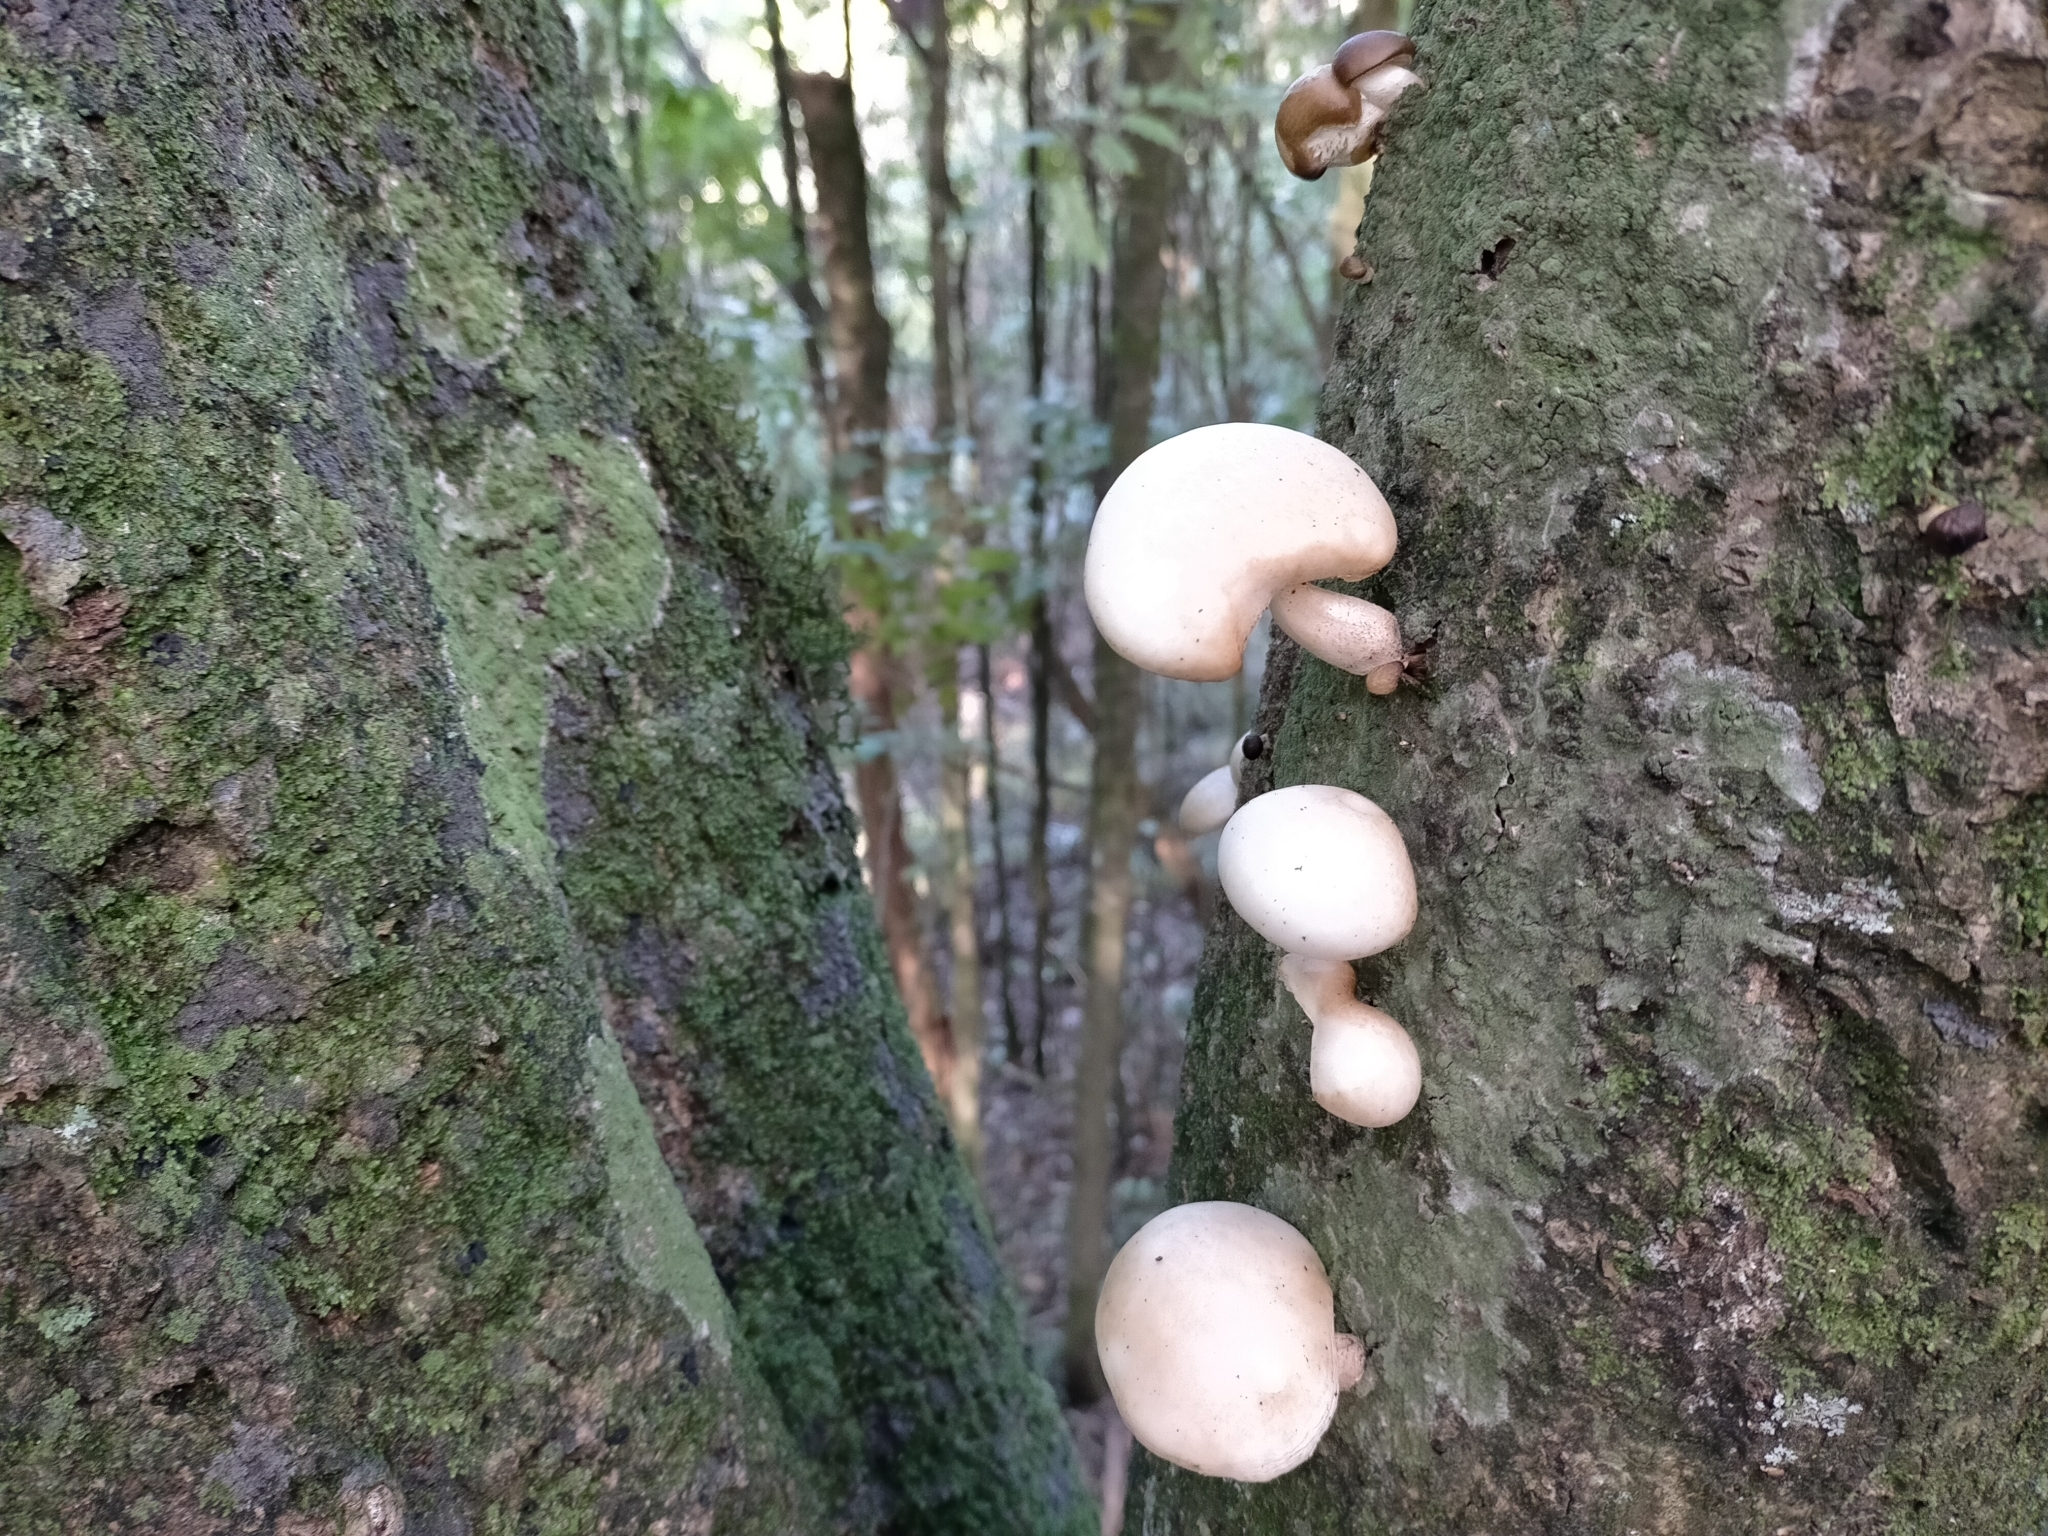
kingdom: Fungi
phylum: Basidiomycota
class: Agaricomycetes
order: Agaricales
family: Physalacriaceae
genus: Oudemansiella
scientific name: Oudemansiella australis
